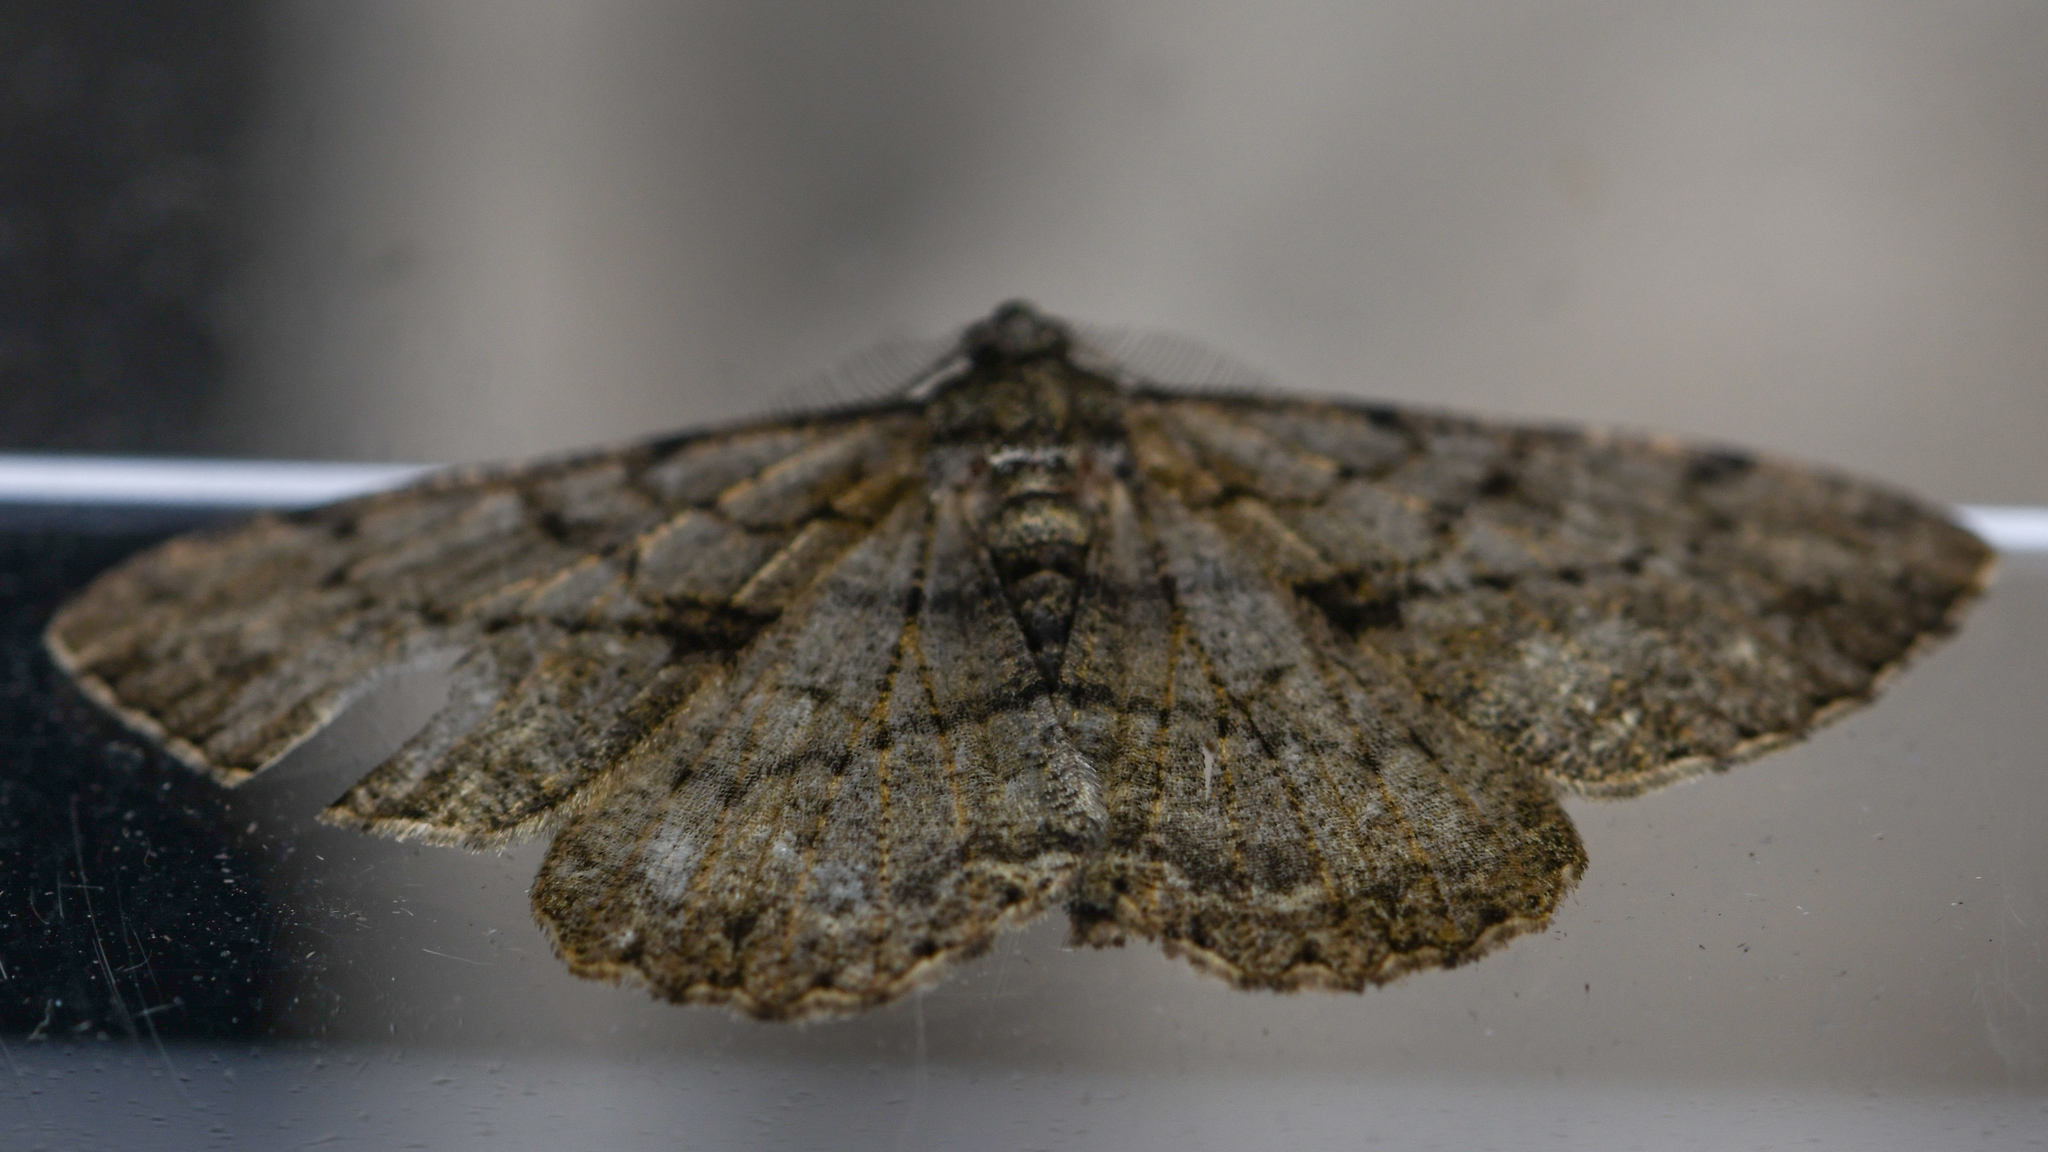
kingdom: Animalia
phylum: Arthropoda
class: Insecta
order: Lepidoptera
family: Geometridae
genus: Peribatodes
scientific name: Peribatodes rhomboidaria
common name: Willow beauty
